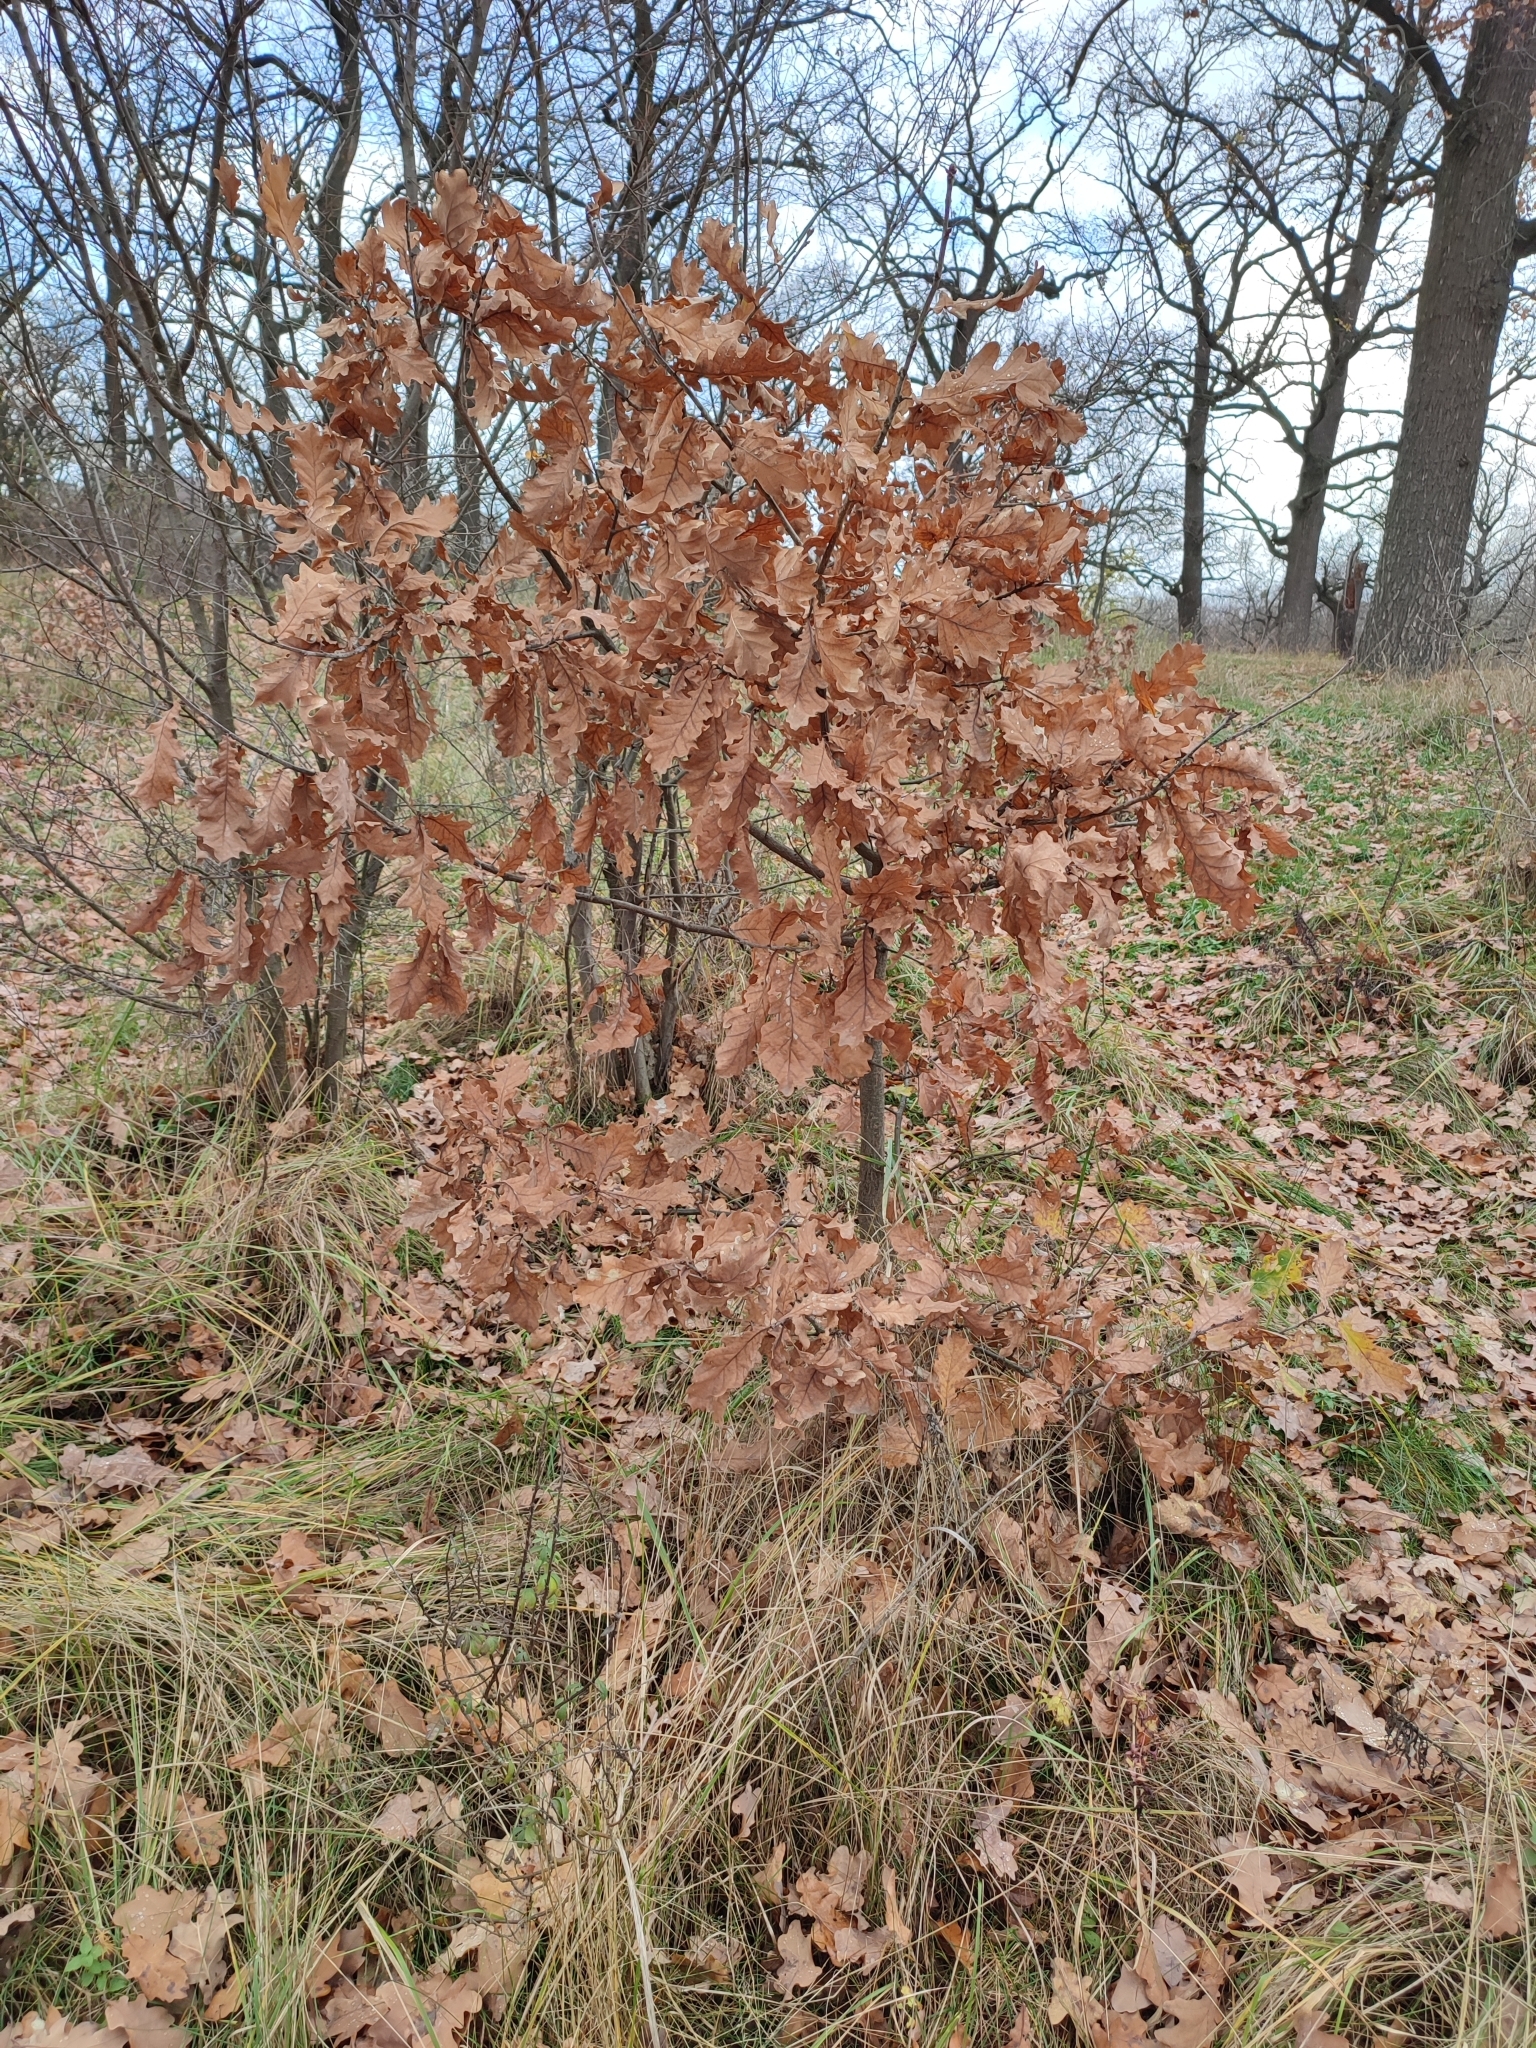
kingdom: Plantae
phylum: Tracheophyta
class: Magnoliopsida
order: Fagales
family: Fagaceae
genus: Quercus
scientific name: Quercus robur
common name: Pedunculate oak
